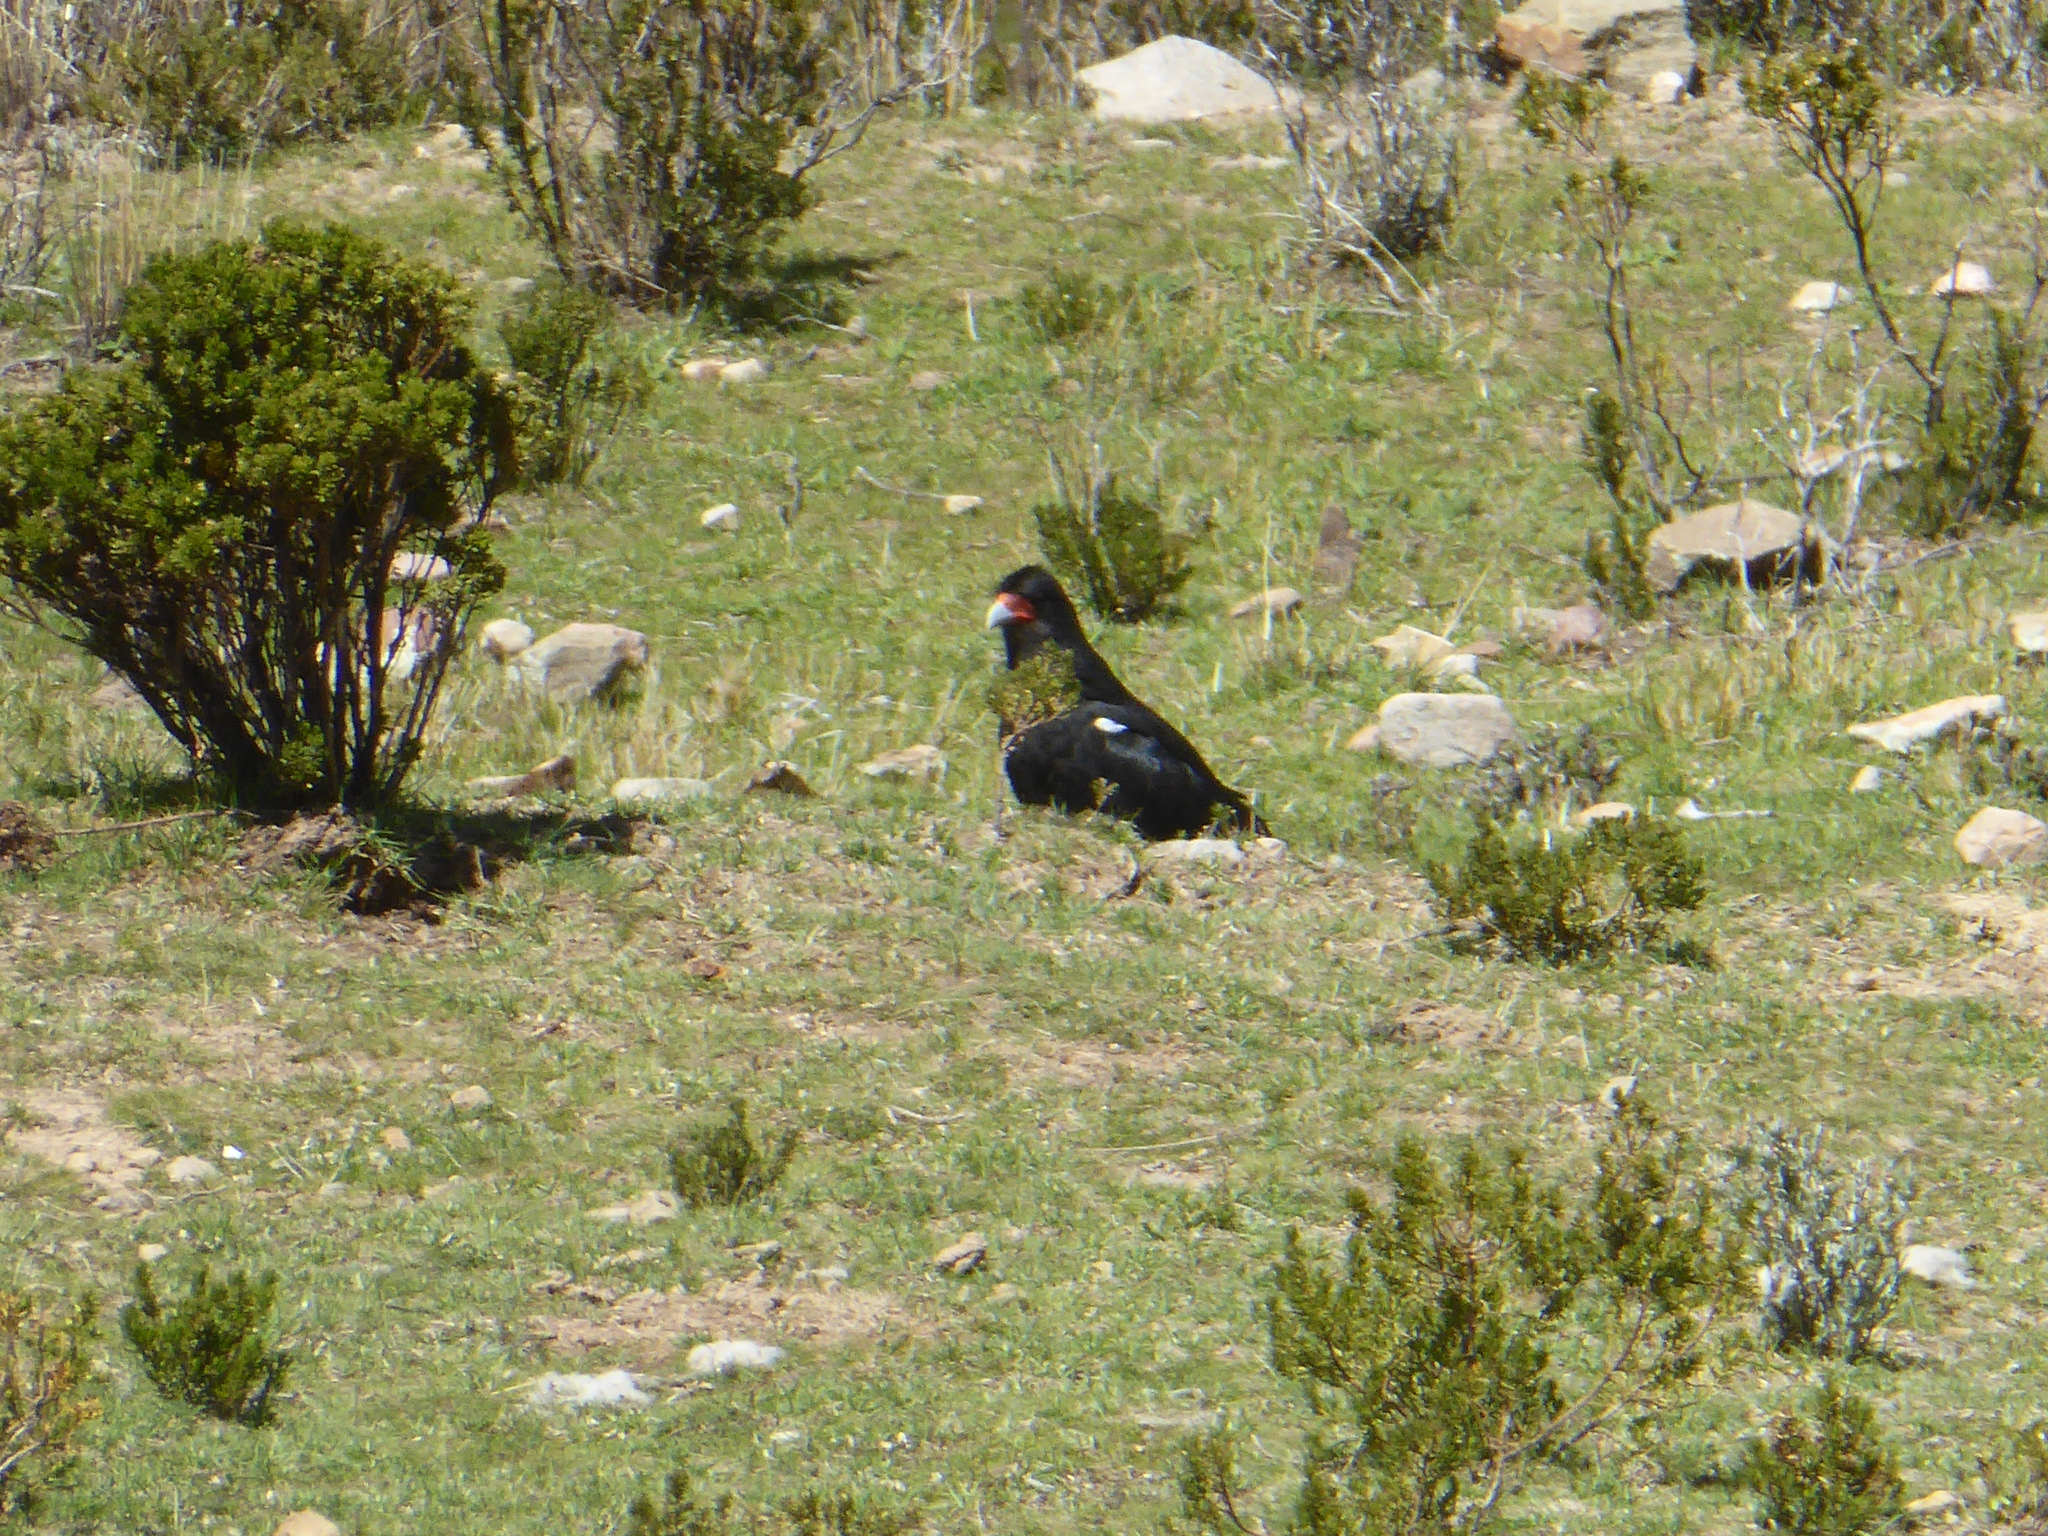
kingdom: Animalia
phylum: Chordata
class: Aves
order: Falconiformes
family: Falconidae
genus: Daptrius
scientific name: Daptrius
